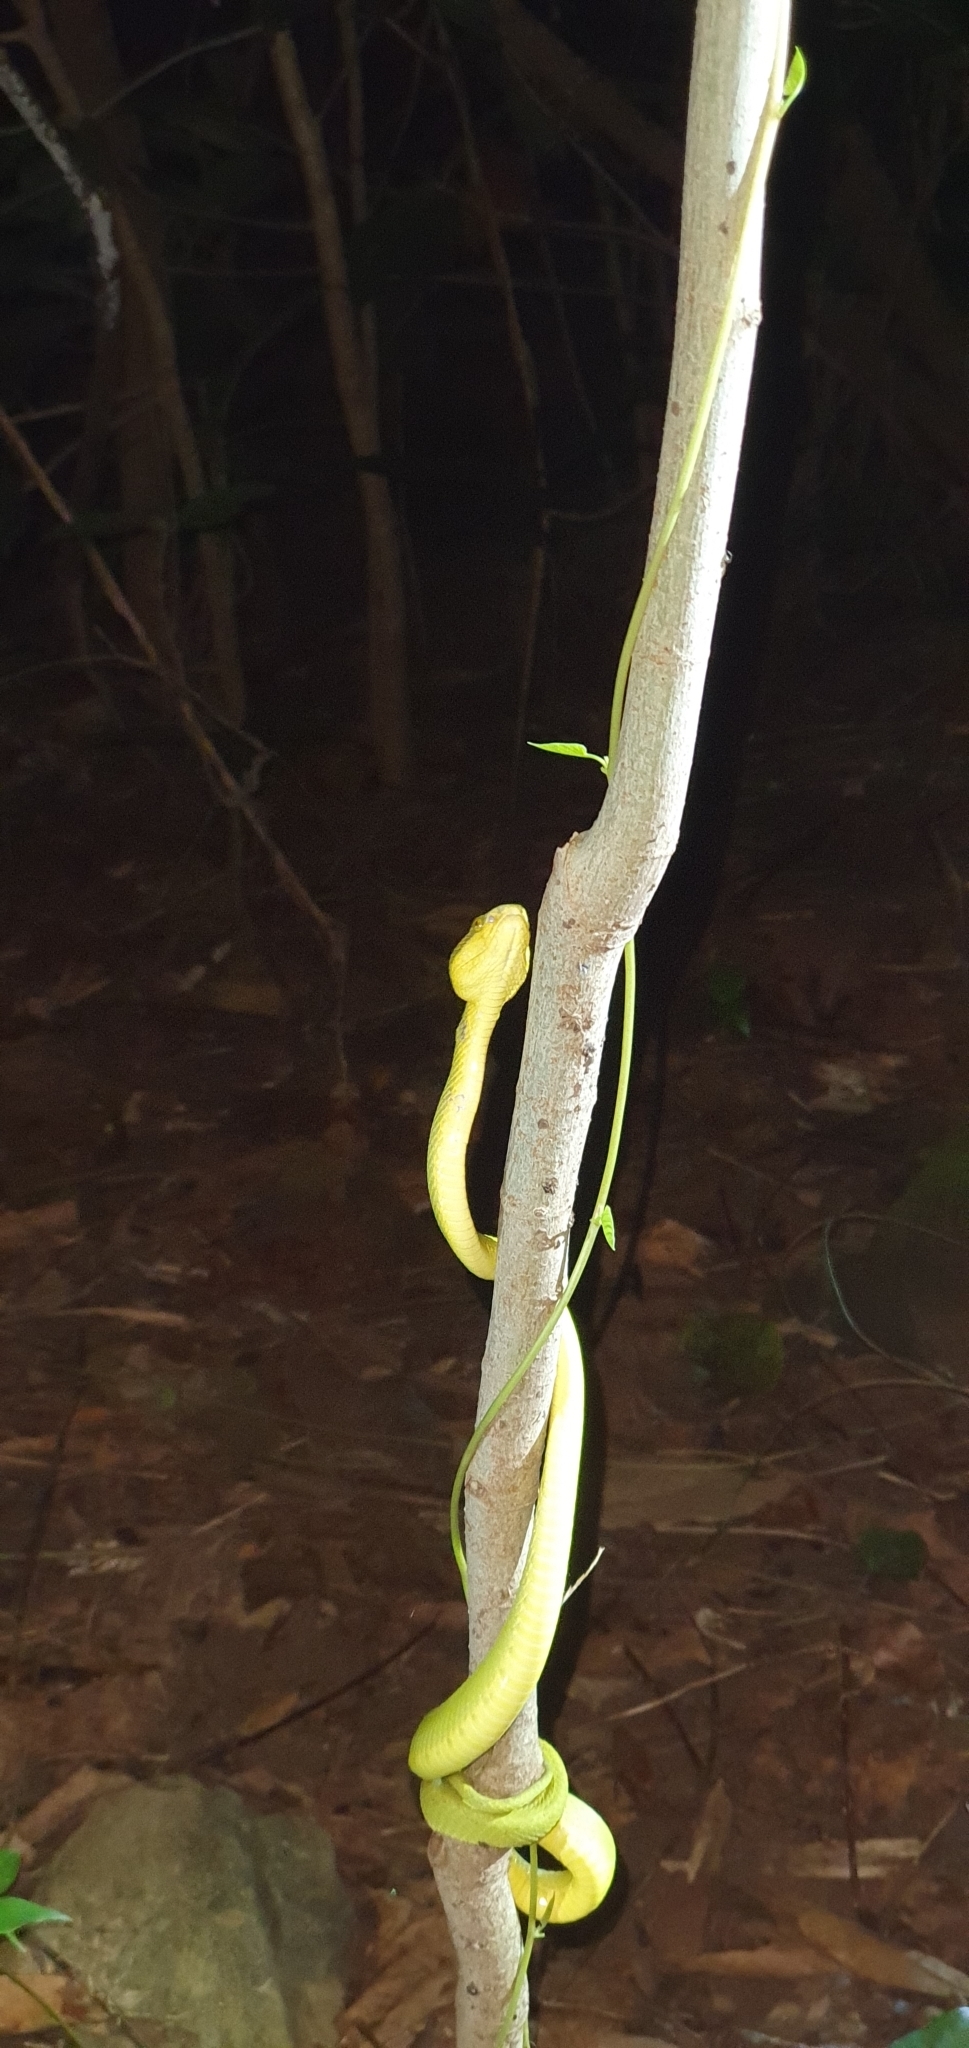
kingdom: Animalia
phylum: Chordata
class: Squamata
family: Viperidae
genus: Craspedocephalus
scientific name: Craspedocephalus gramineus
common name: Common bamboo viper
